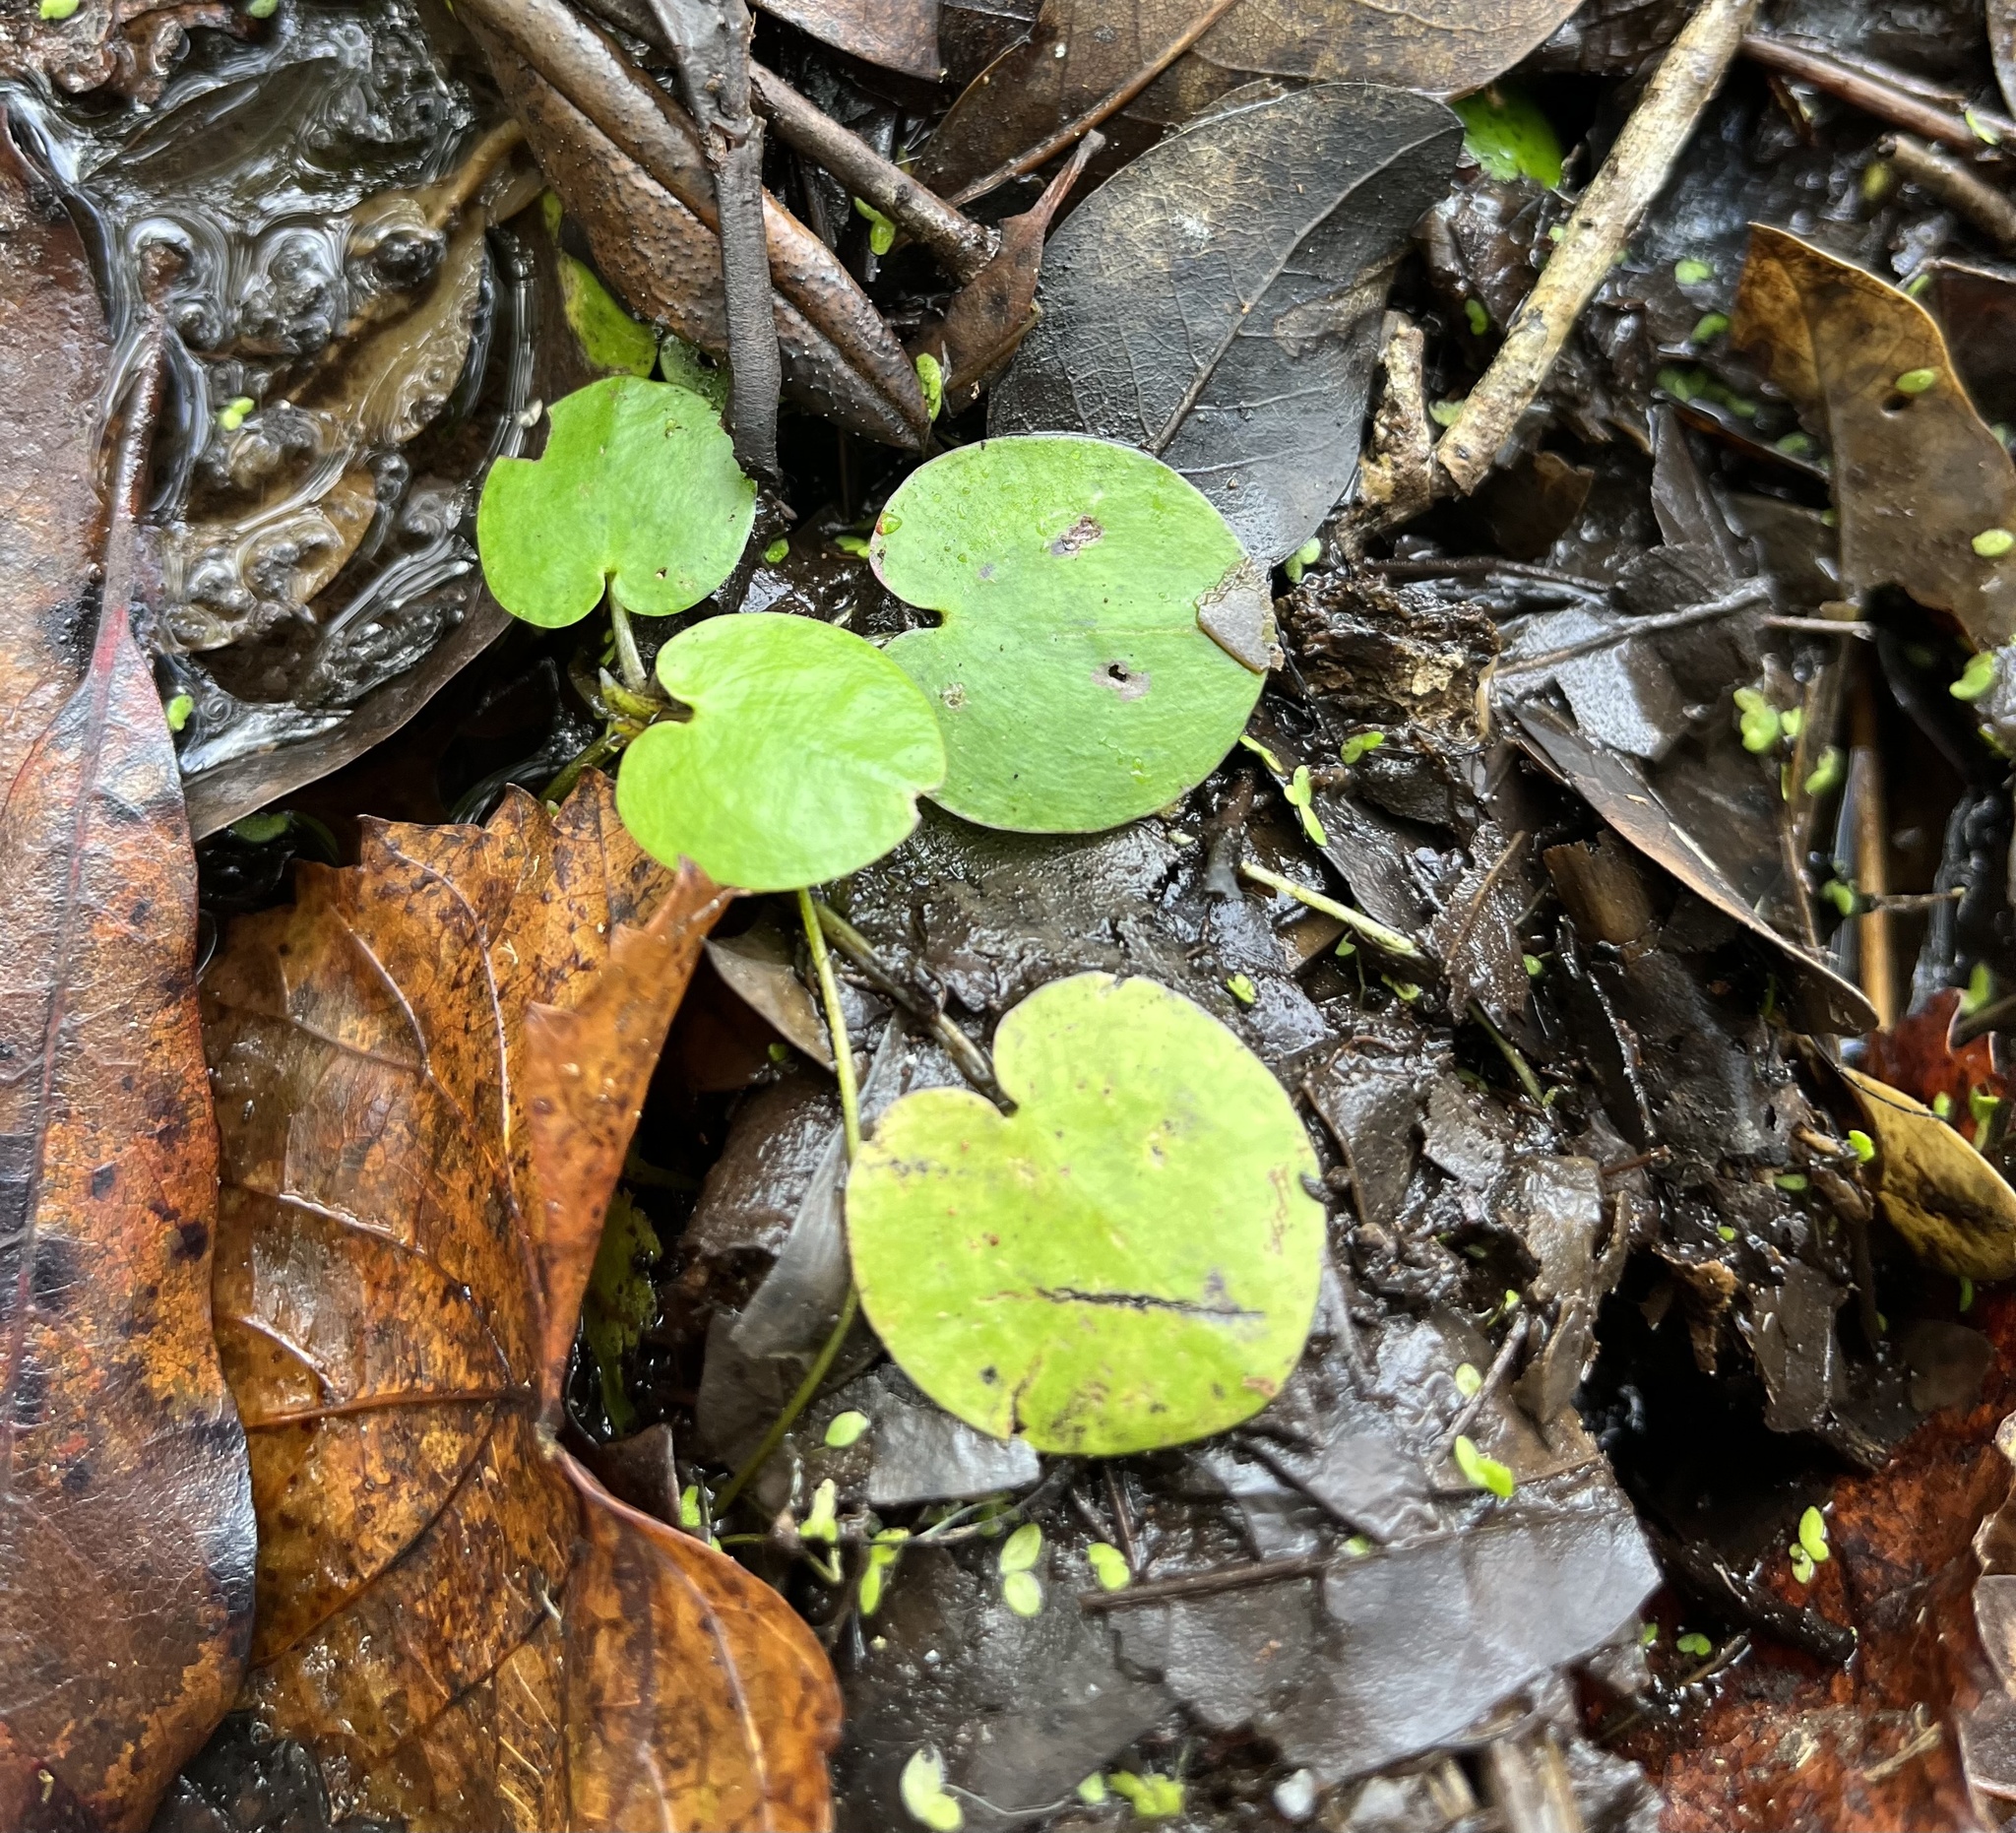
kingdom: Plantae
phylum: Tracheophyta
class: Liliopsida
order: Alismatales
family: Hydrocharitaceae
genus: Hydrocharis
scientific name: Hydrocharis spongia
